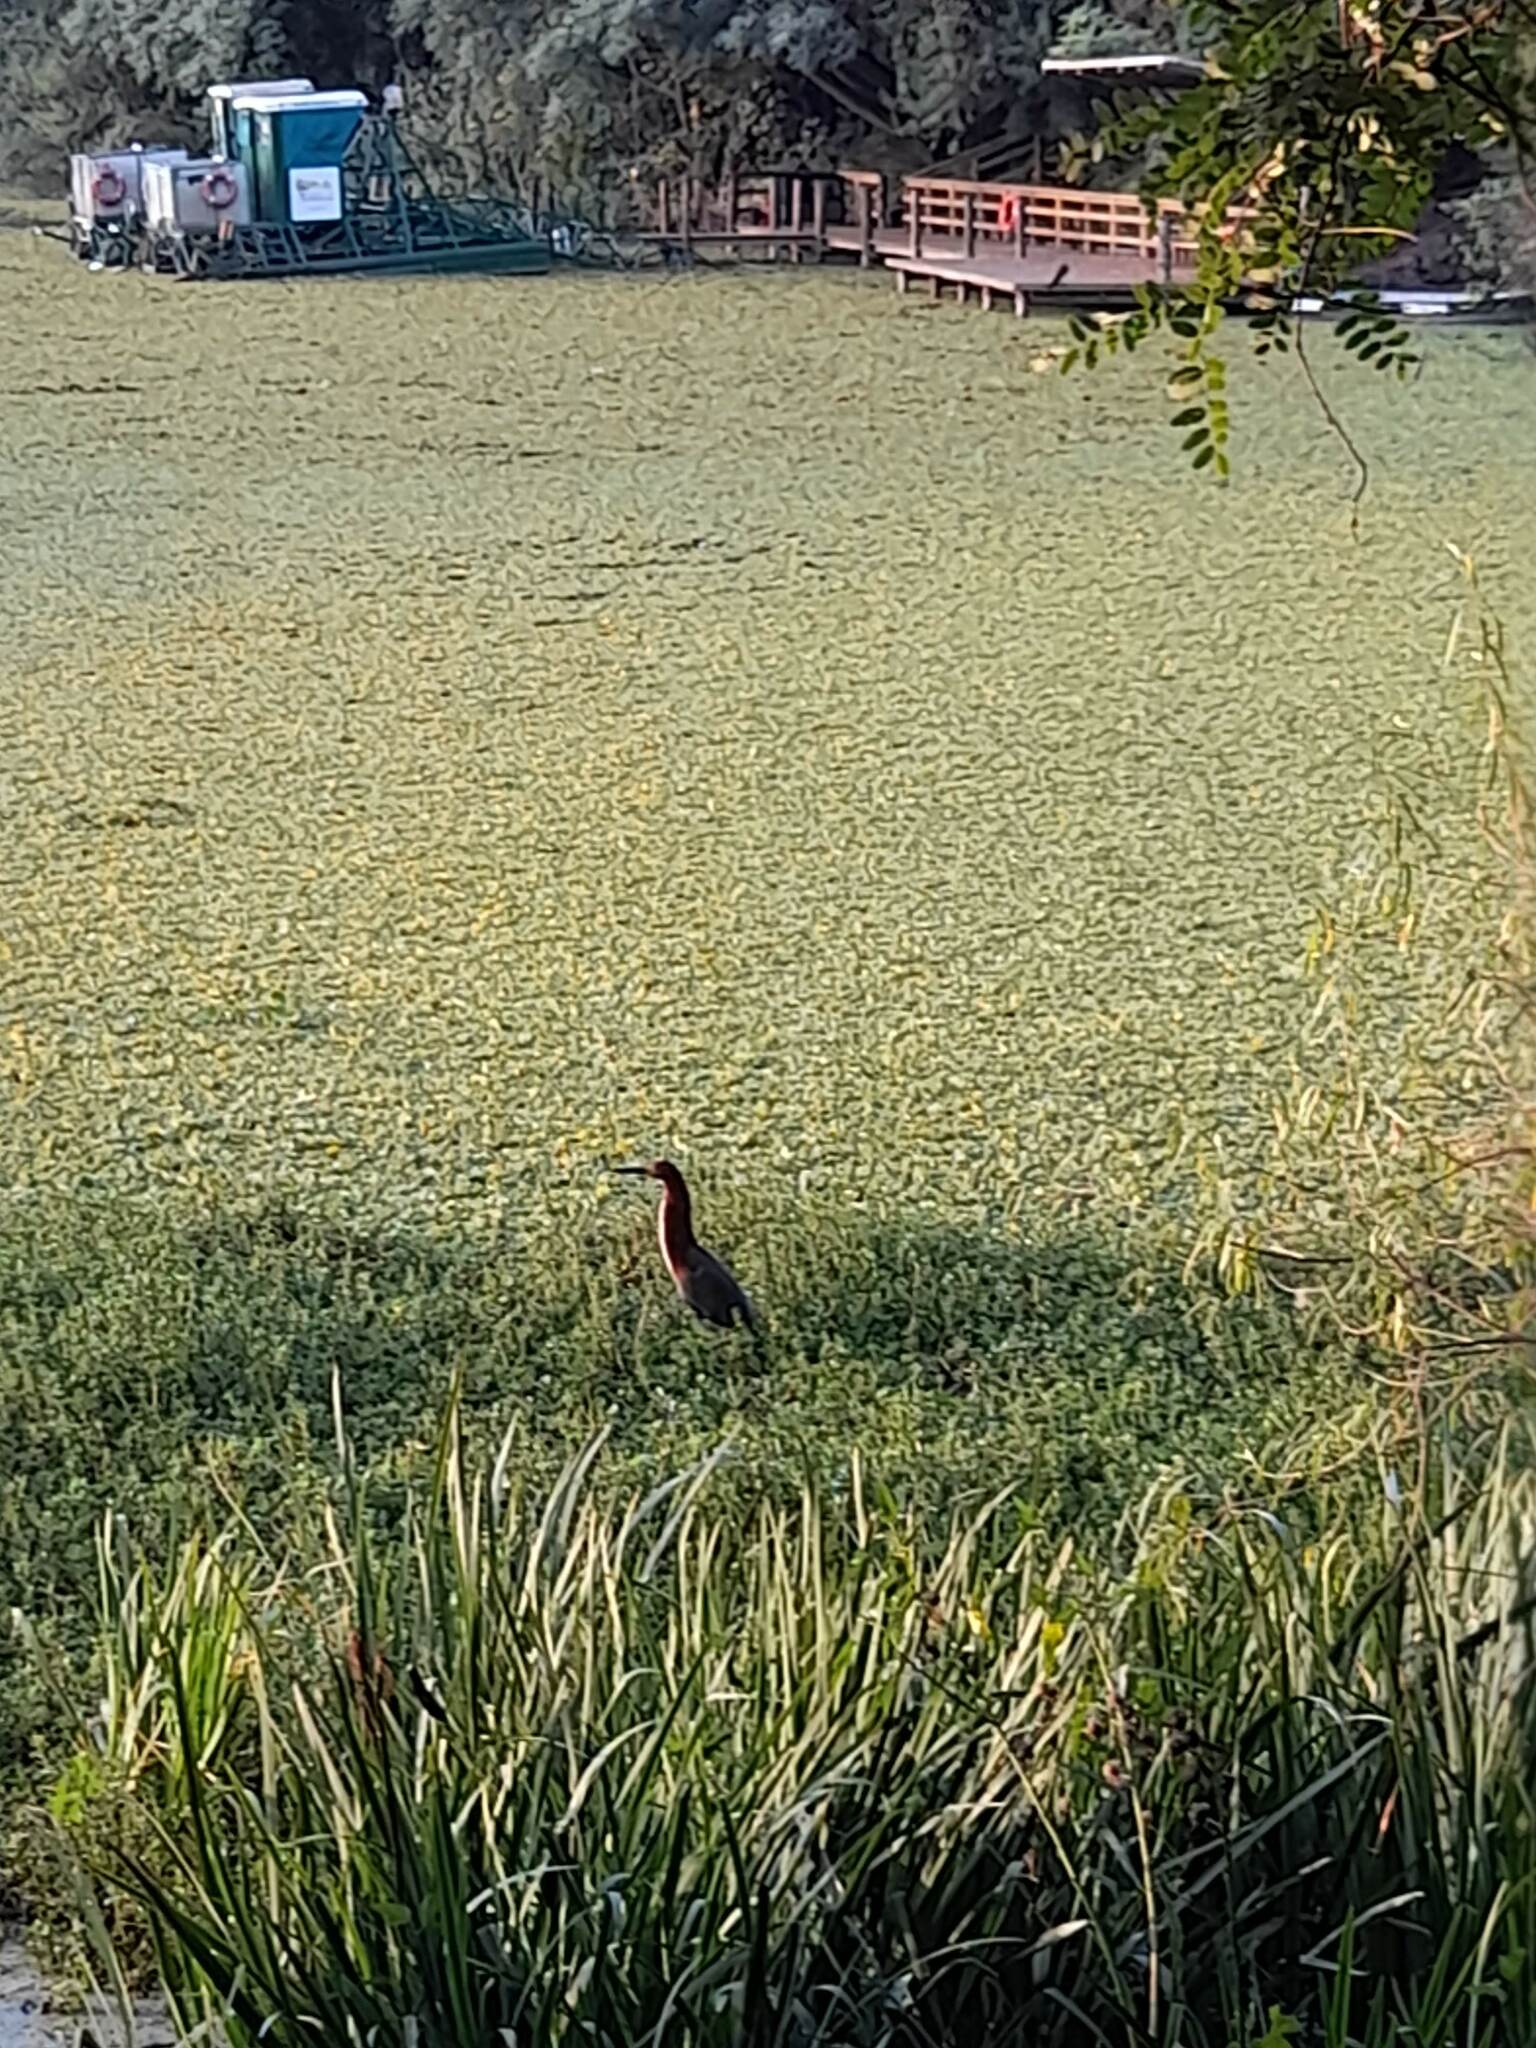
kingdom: Animalia
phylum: Chordata
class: Aves
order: Pelecaniformes
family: Ardeidae
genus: Tigrisoma
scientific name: Tigrisoma lineatum
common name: Rufescent tiger-heron
